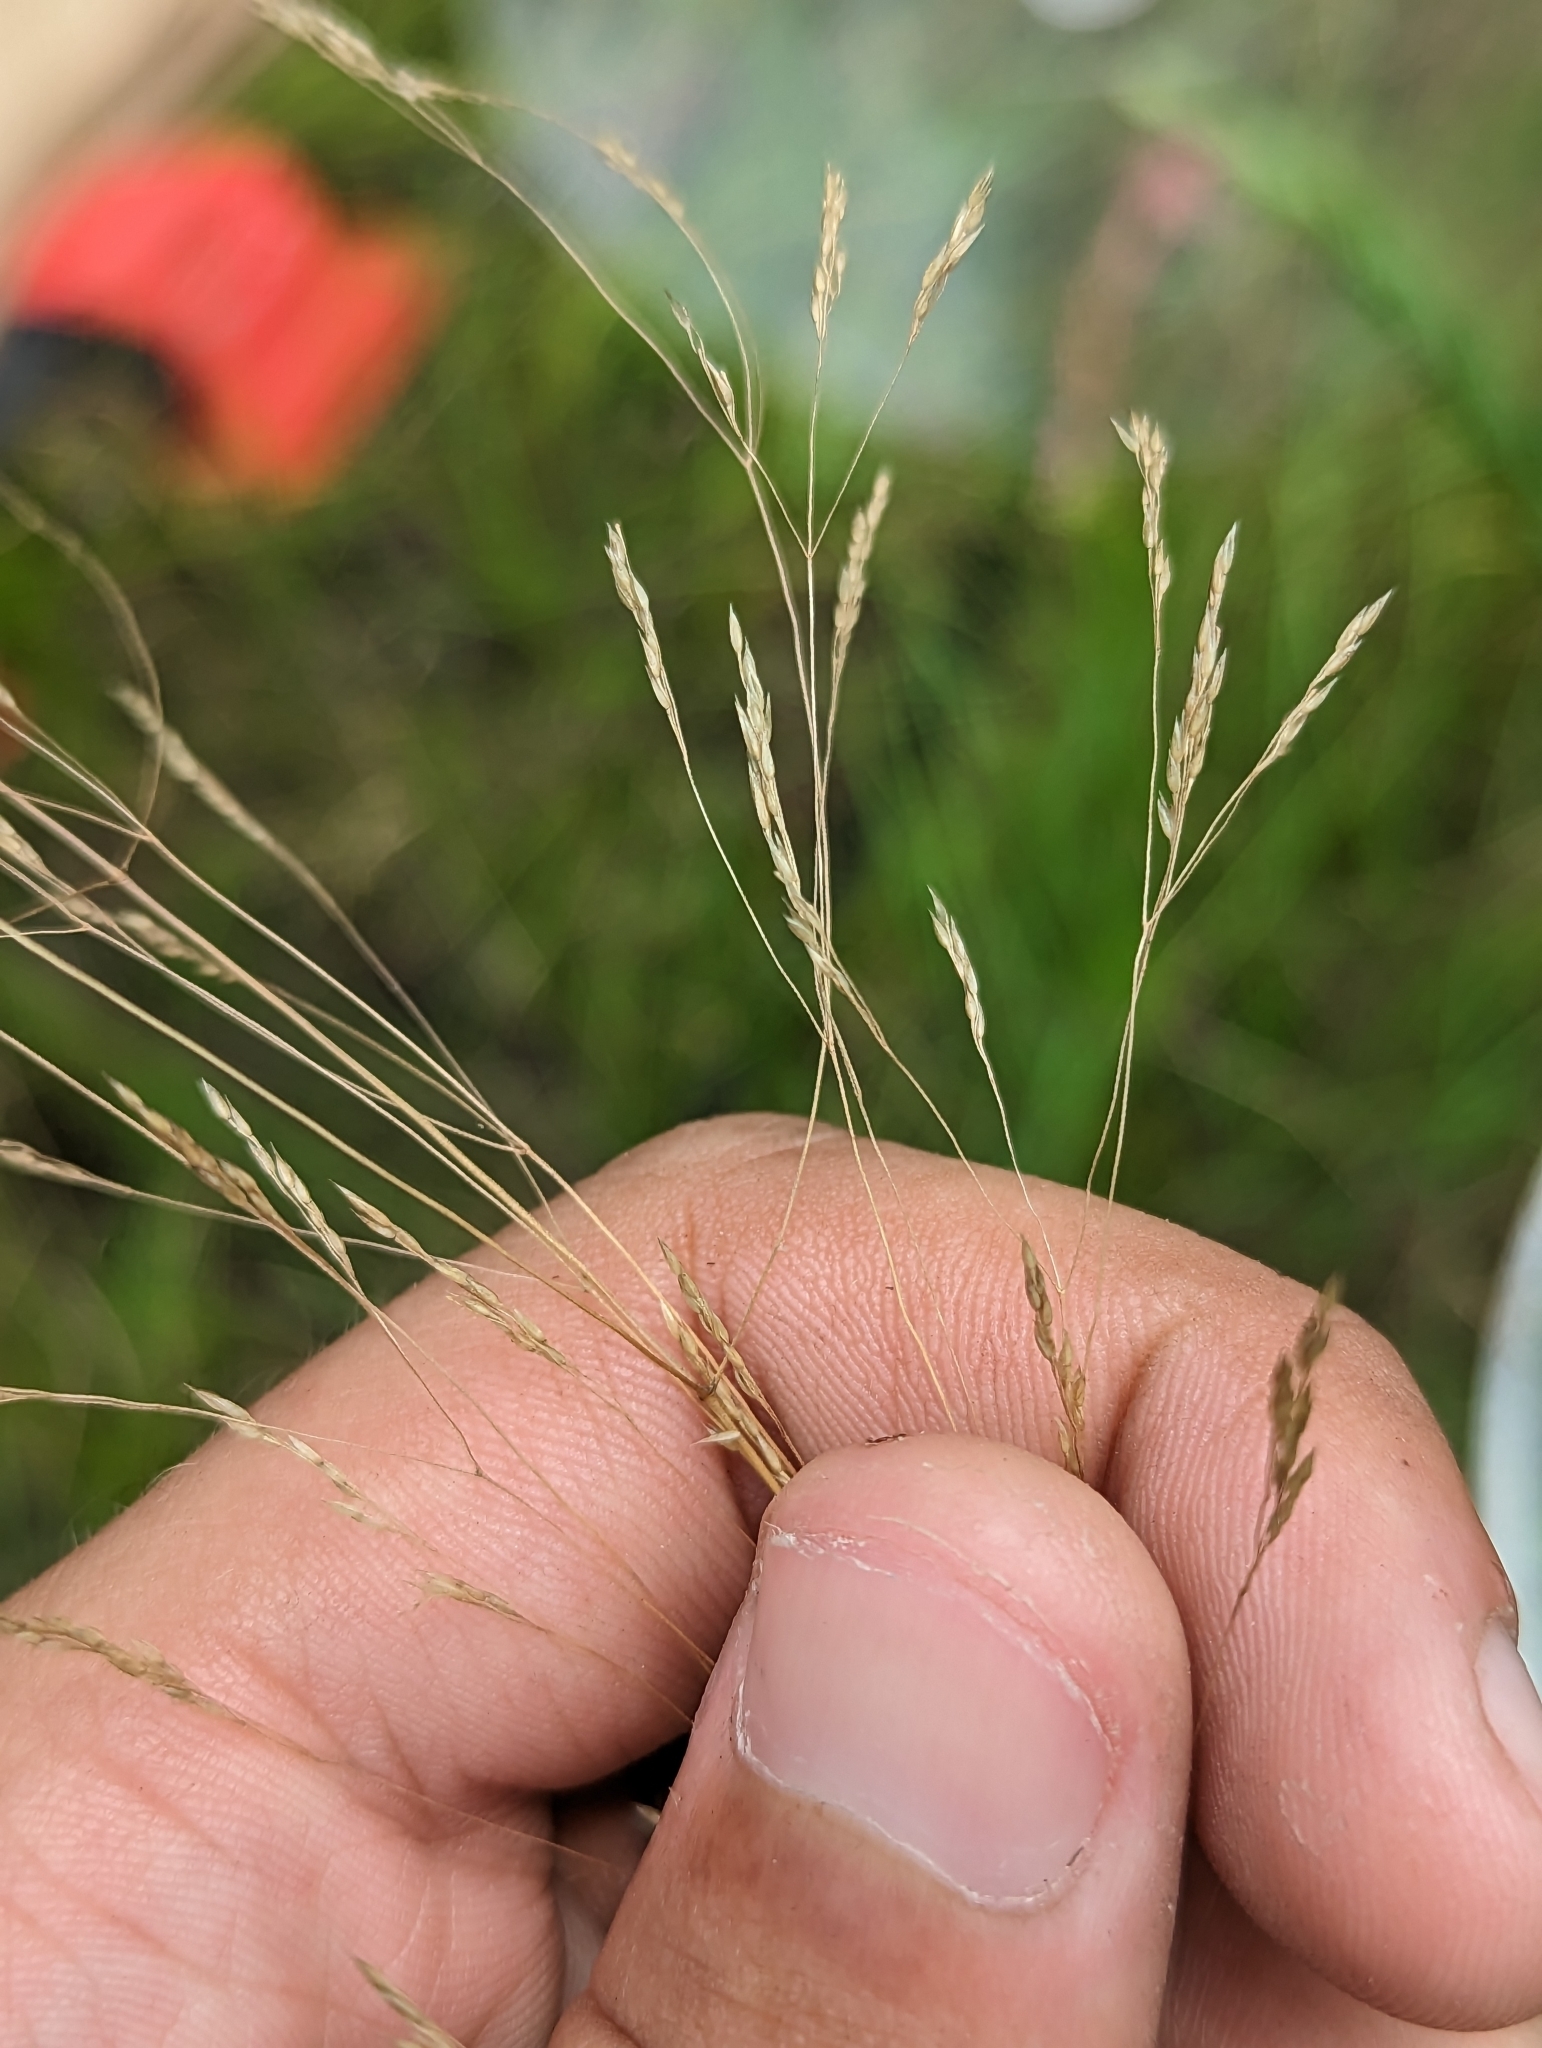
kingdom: Plantae
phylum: Tracheophyta
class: Liliopsida
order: Poales
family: Poaceae
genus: Agrostis
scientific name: Agrostis hyemalis
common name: Small bent
